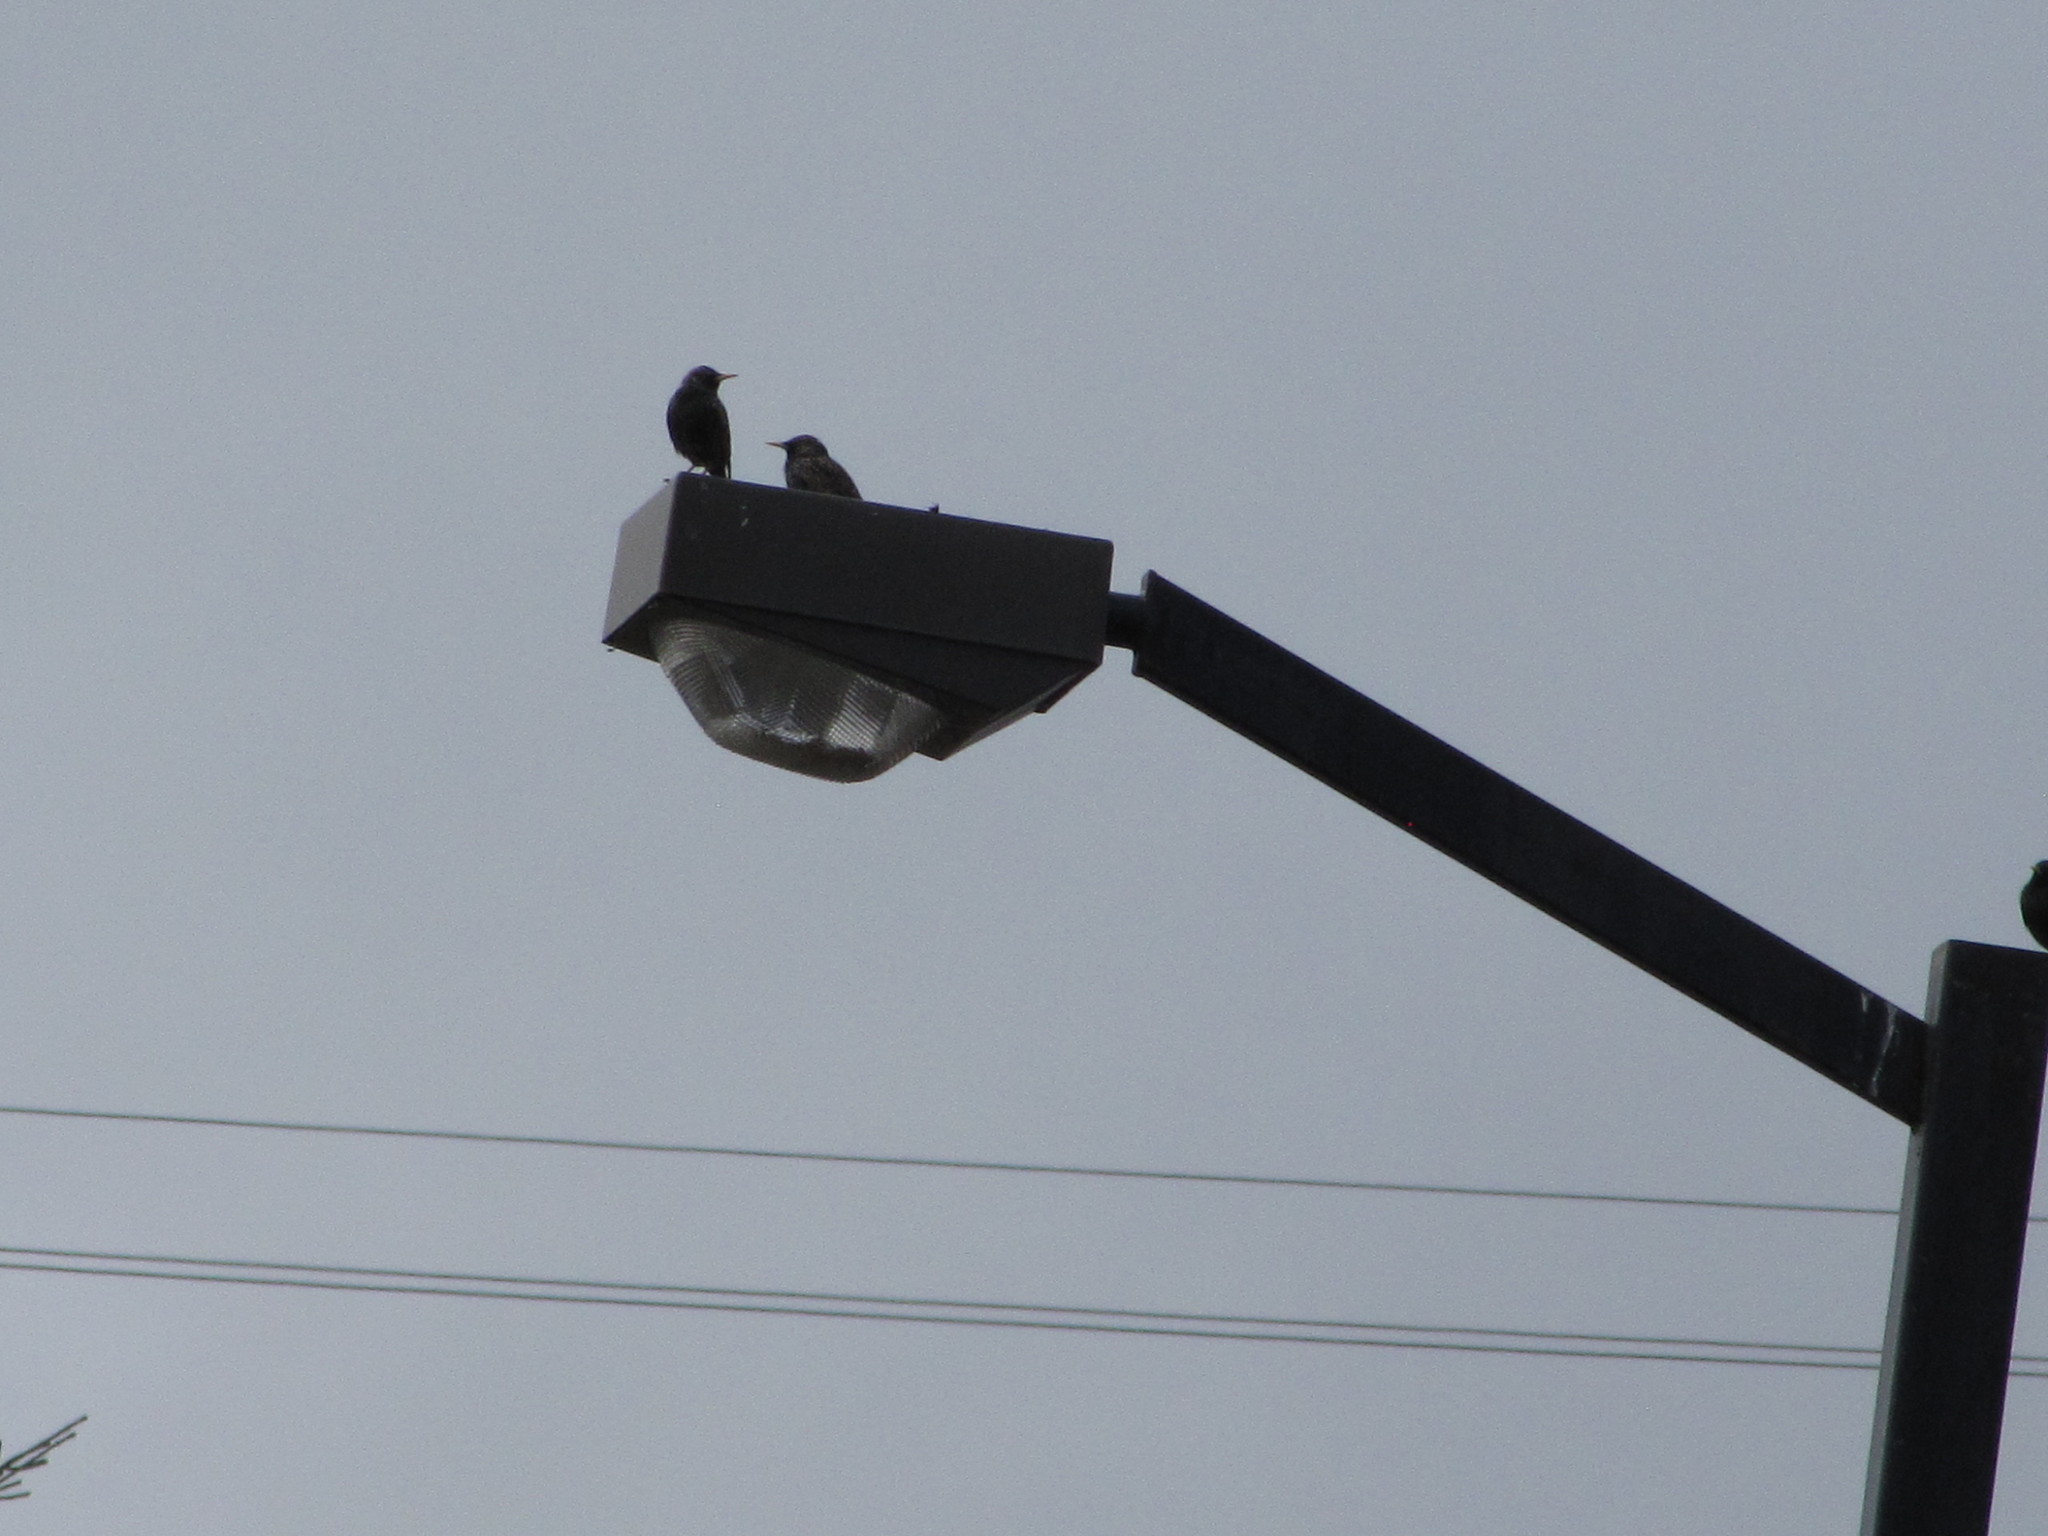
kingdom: Animalia
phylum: Chordata
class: Aves
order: Passeriformes
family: Sturnidae
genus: Sturnus
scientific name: Sturnus vulgaris
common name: Common starling
